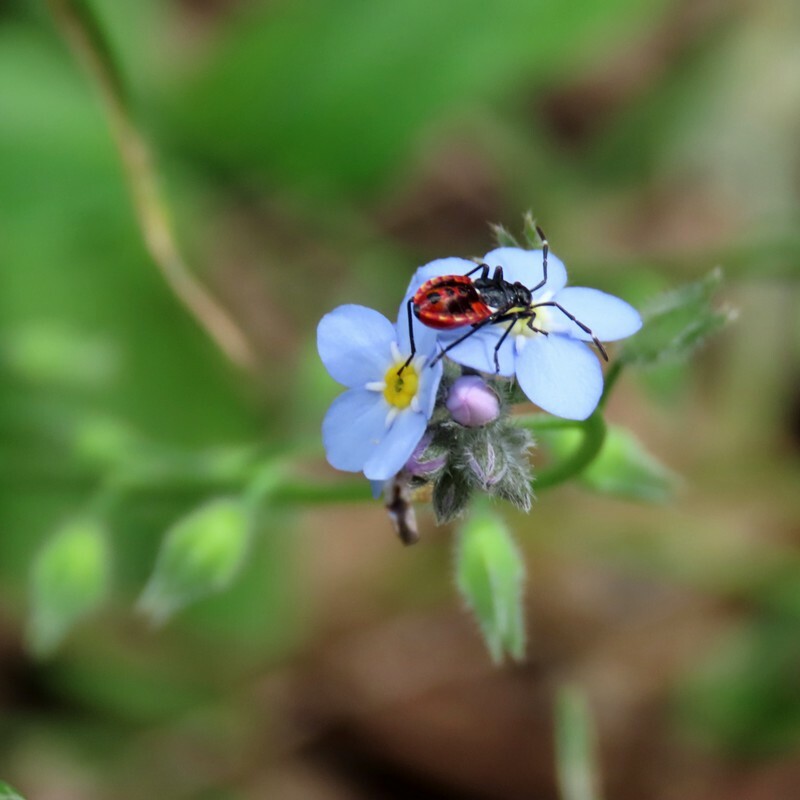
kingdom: Animalia
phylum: Arthropoda
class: Insecta
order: Hemiptera
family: Pyrrhocoridae
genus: Dindymus
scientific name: Dindymus
